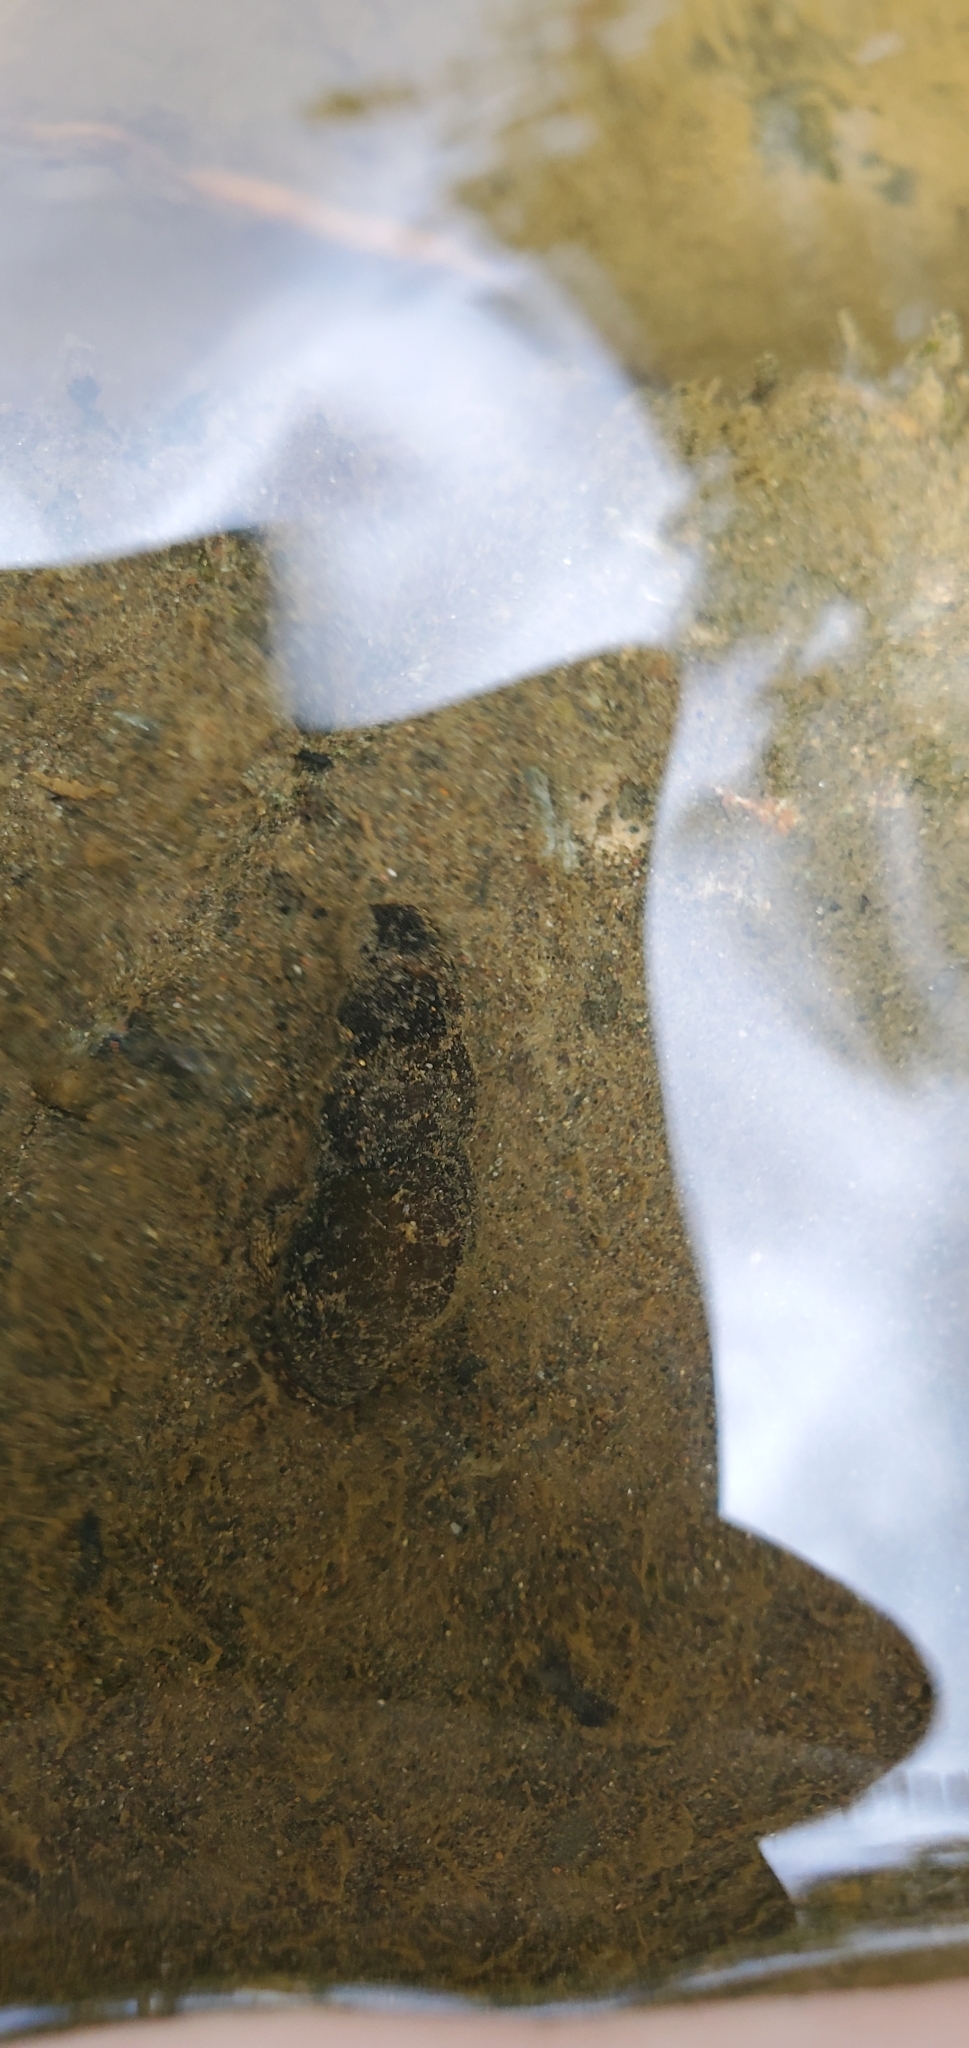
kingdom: Animalia
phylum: Mollusca
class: Gastropoda
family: Semisulcospiridae
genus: Juga
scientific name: Juga plicifera
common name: Pleated juga
